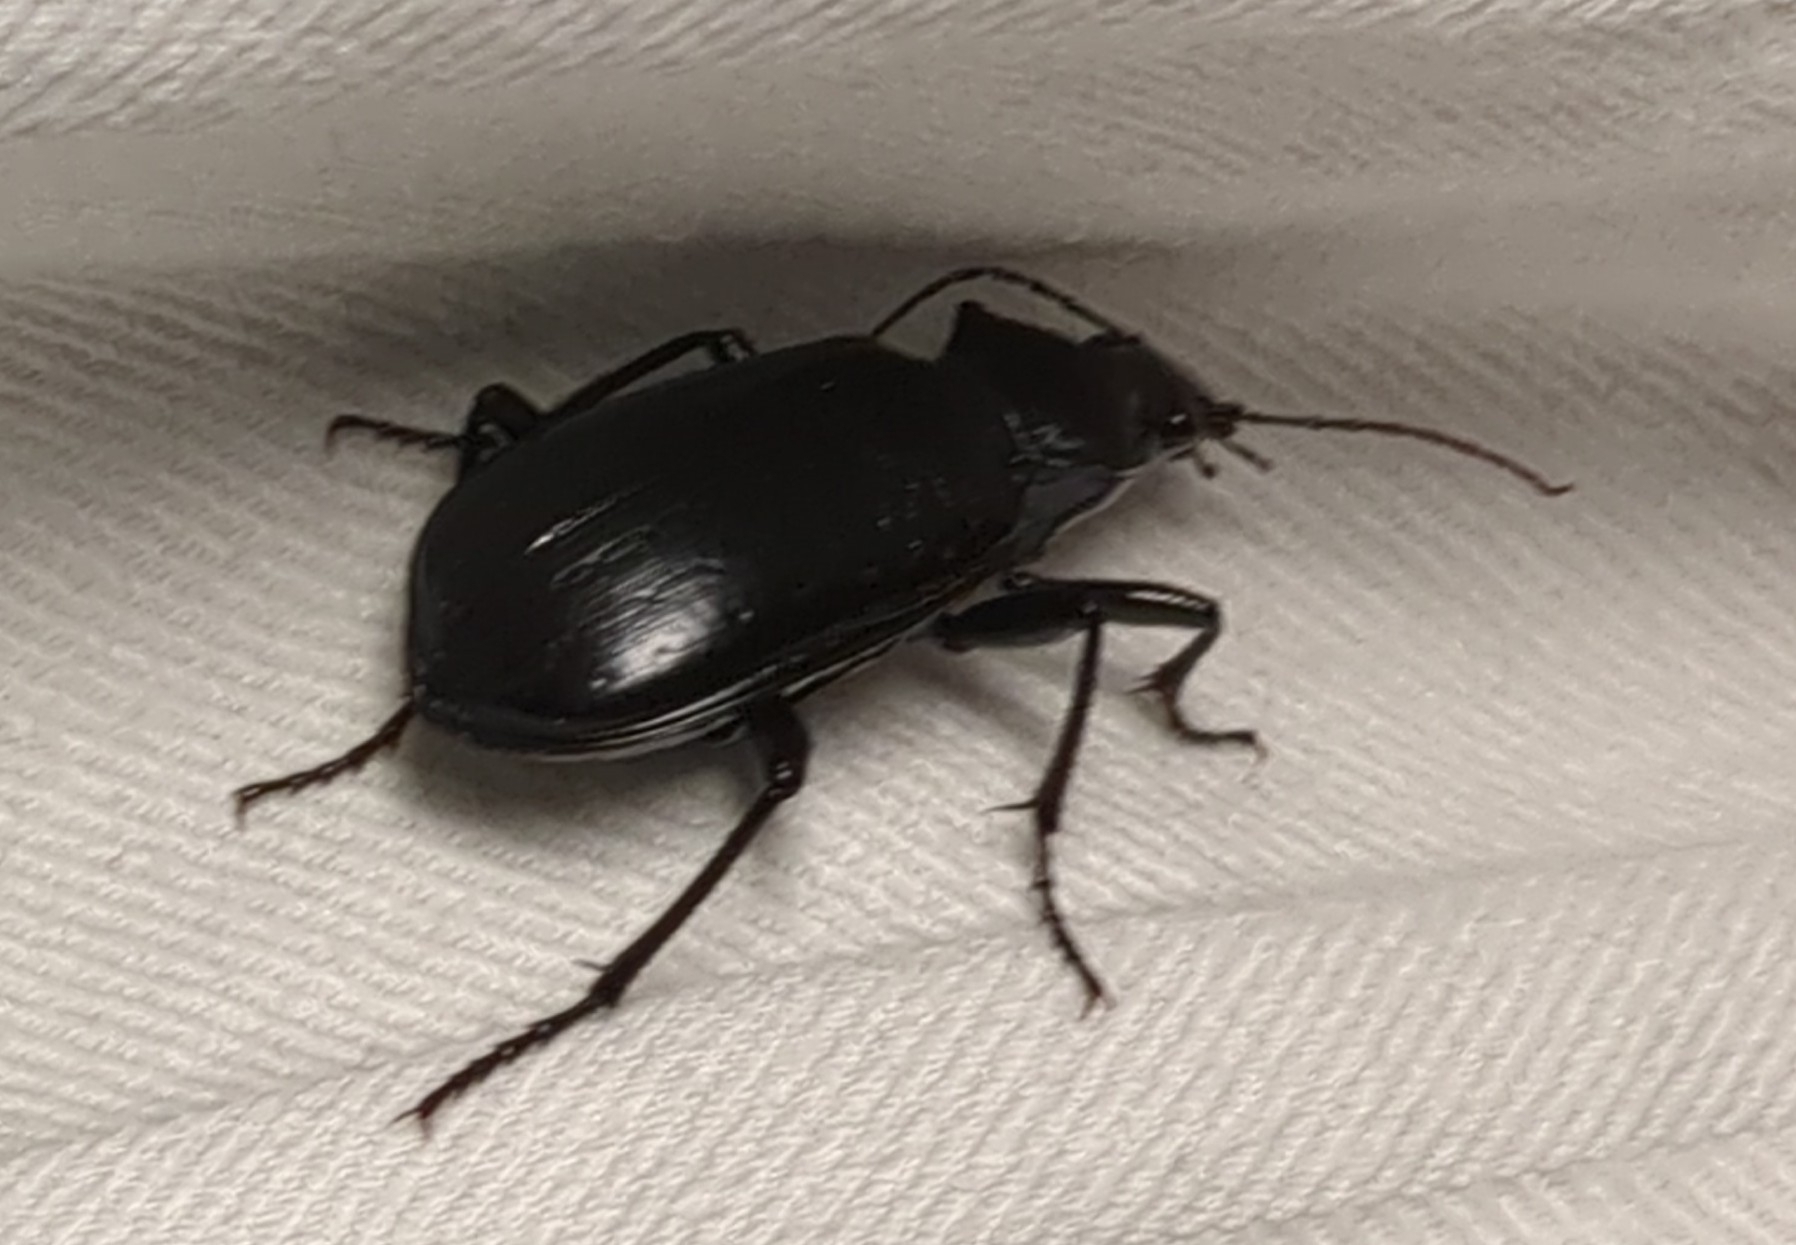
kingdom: Animalia
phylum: Arthropoda
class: Insecta
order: Coleoptera
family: Carabidae
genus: Calosoma
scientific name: Calosoma marginale
